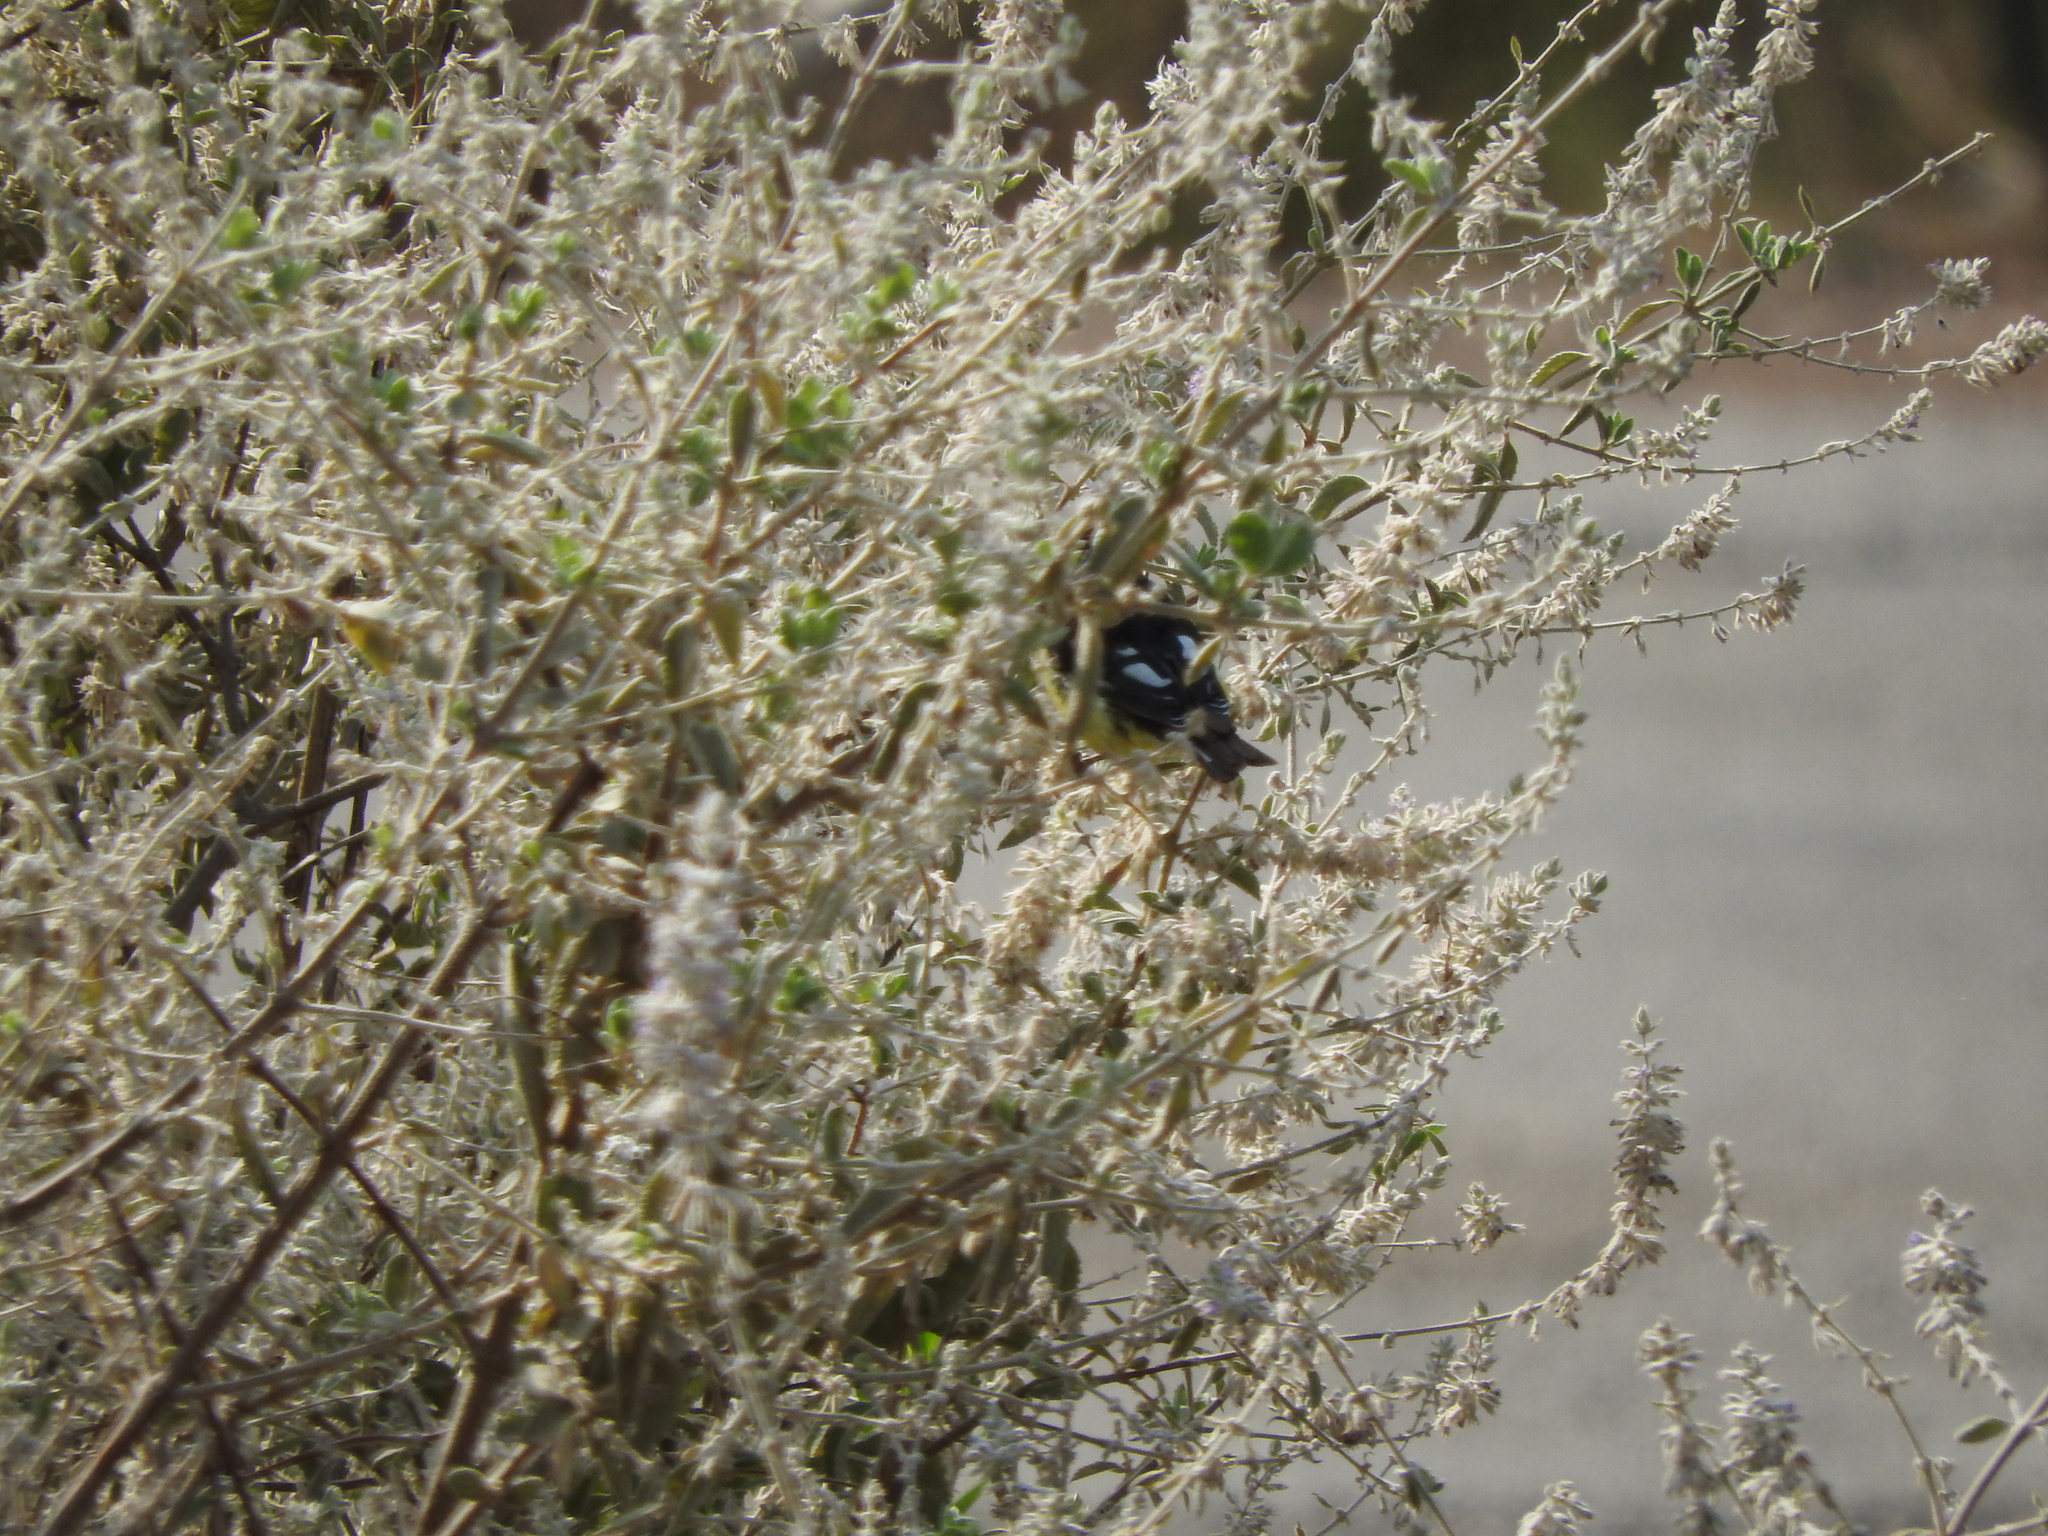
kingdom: Animalia
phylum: Chordata
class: Aves
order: Passeriformes
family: Fringillidae
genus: Spinus
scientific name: Spinus psaltria
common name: Lesser goldfinch
